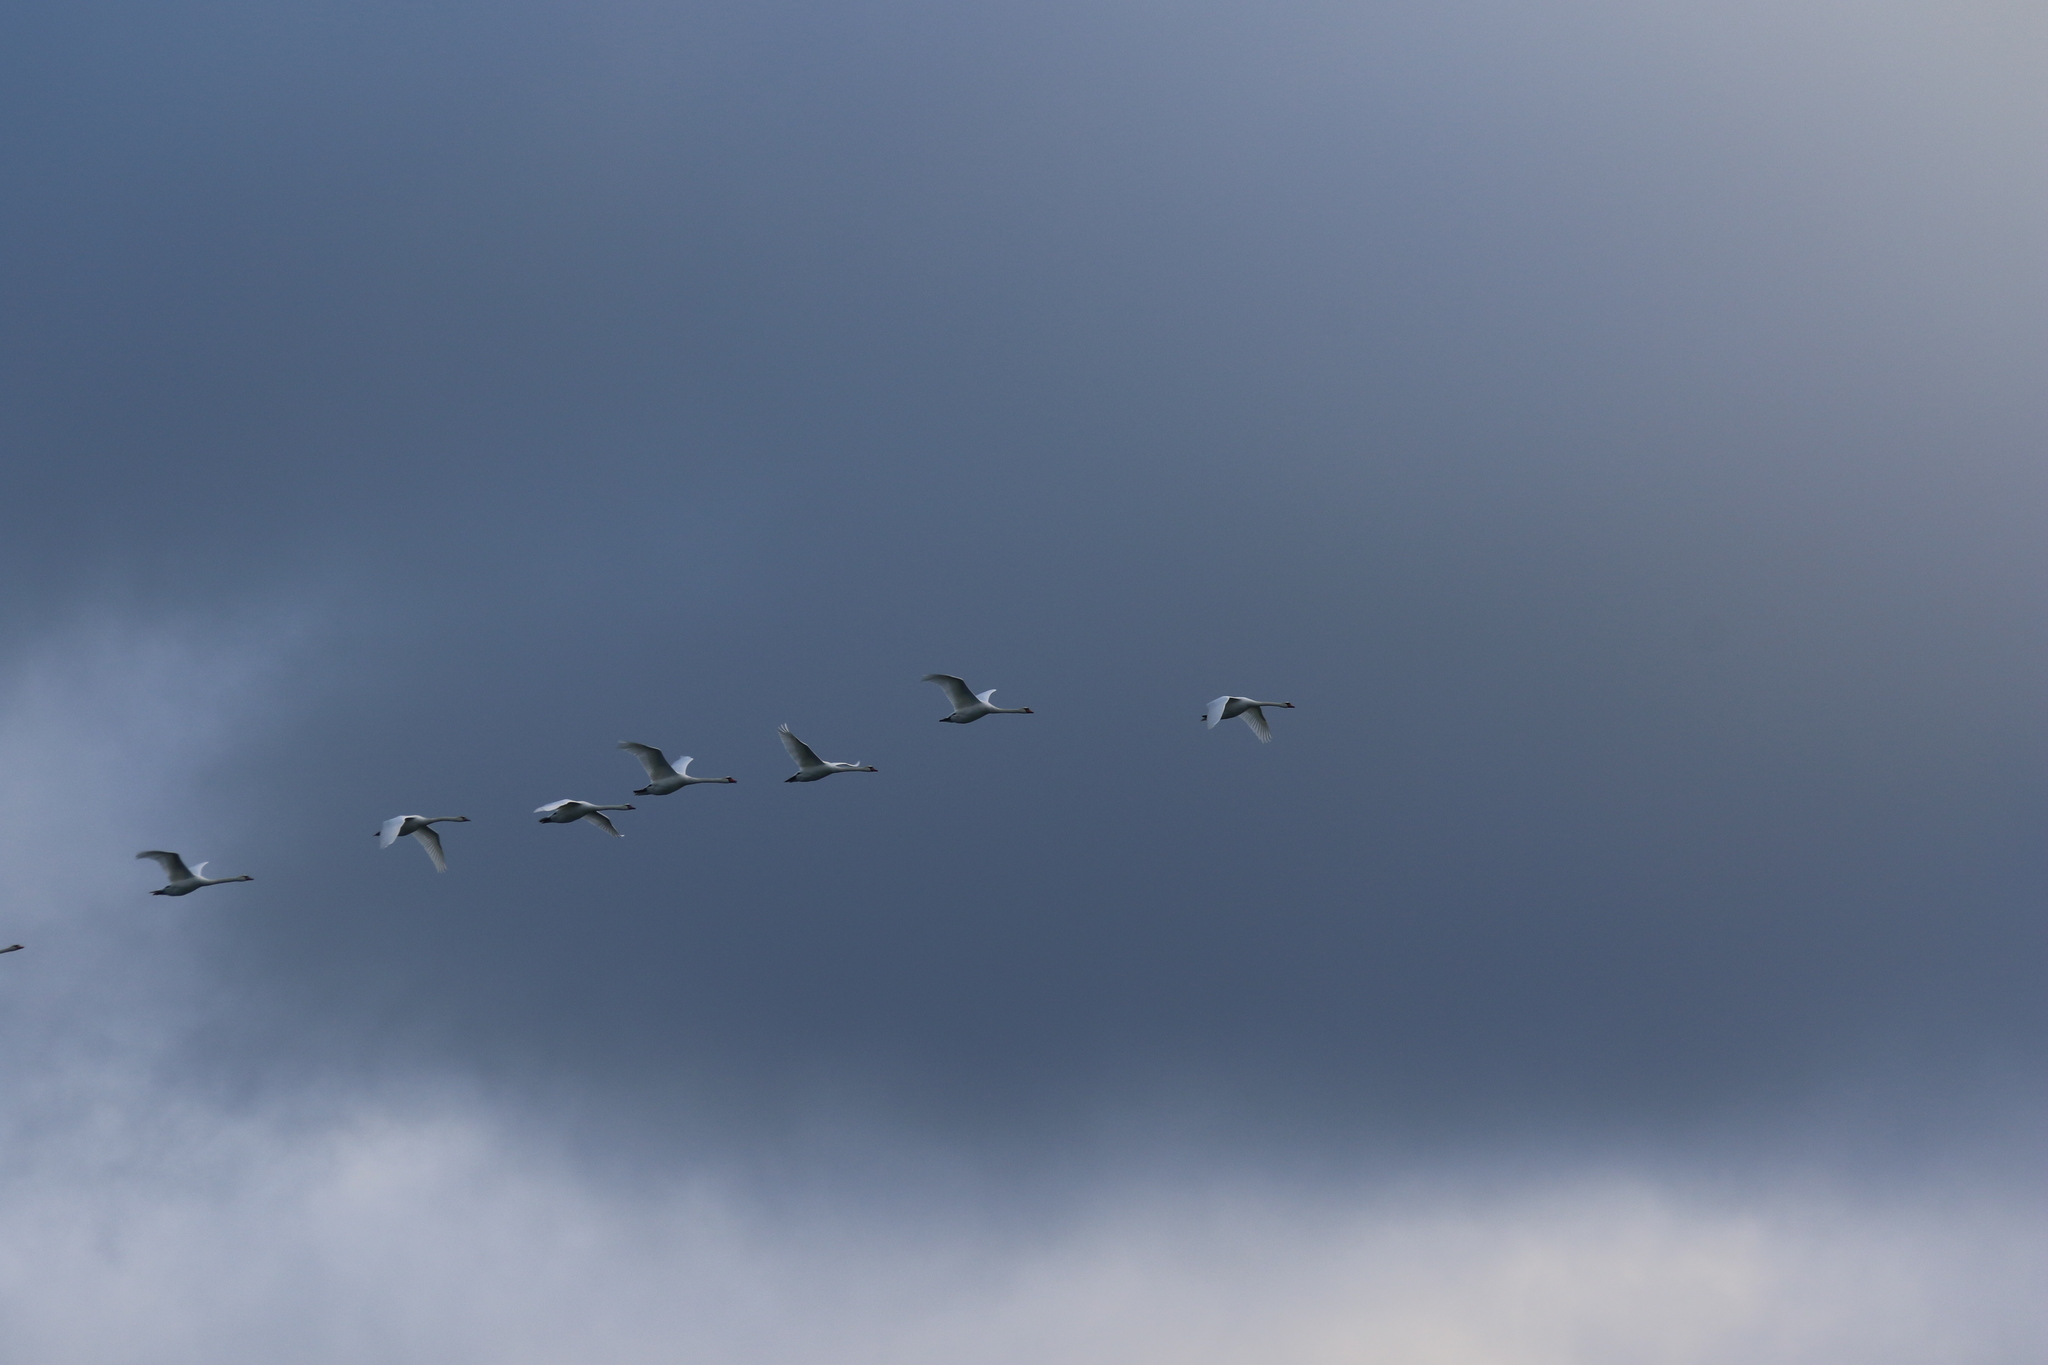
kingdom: Animalia
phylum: Chordata
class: Aves
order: Anseriformes
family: Anatidae
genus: Cygnus
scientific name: Cygnus olor
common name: Mute swan
